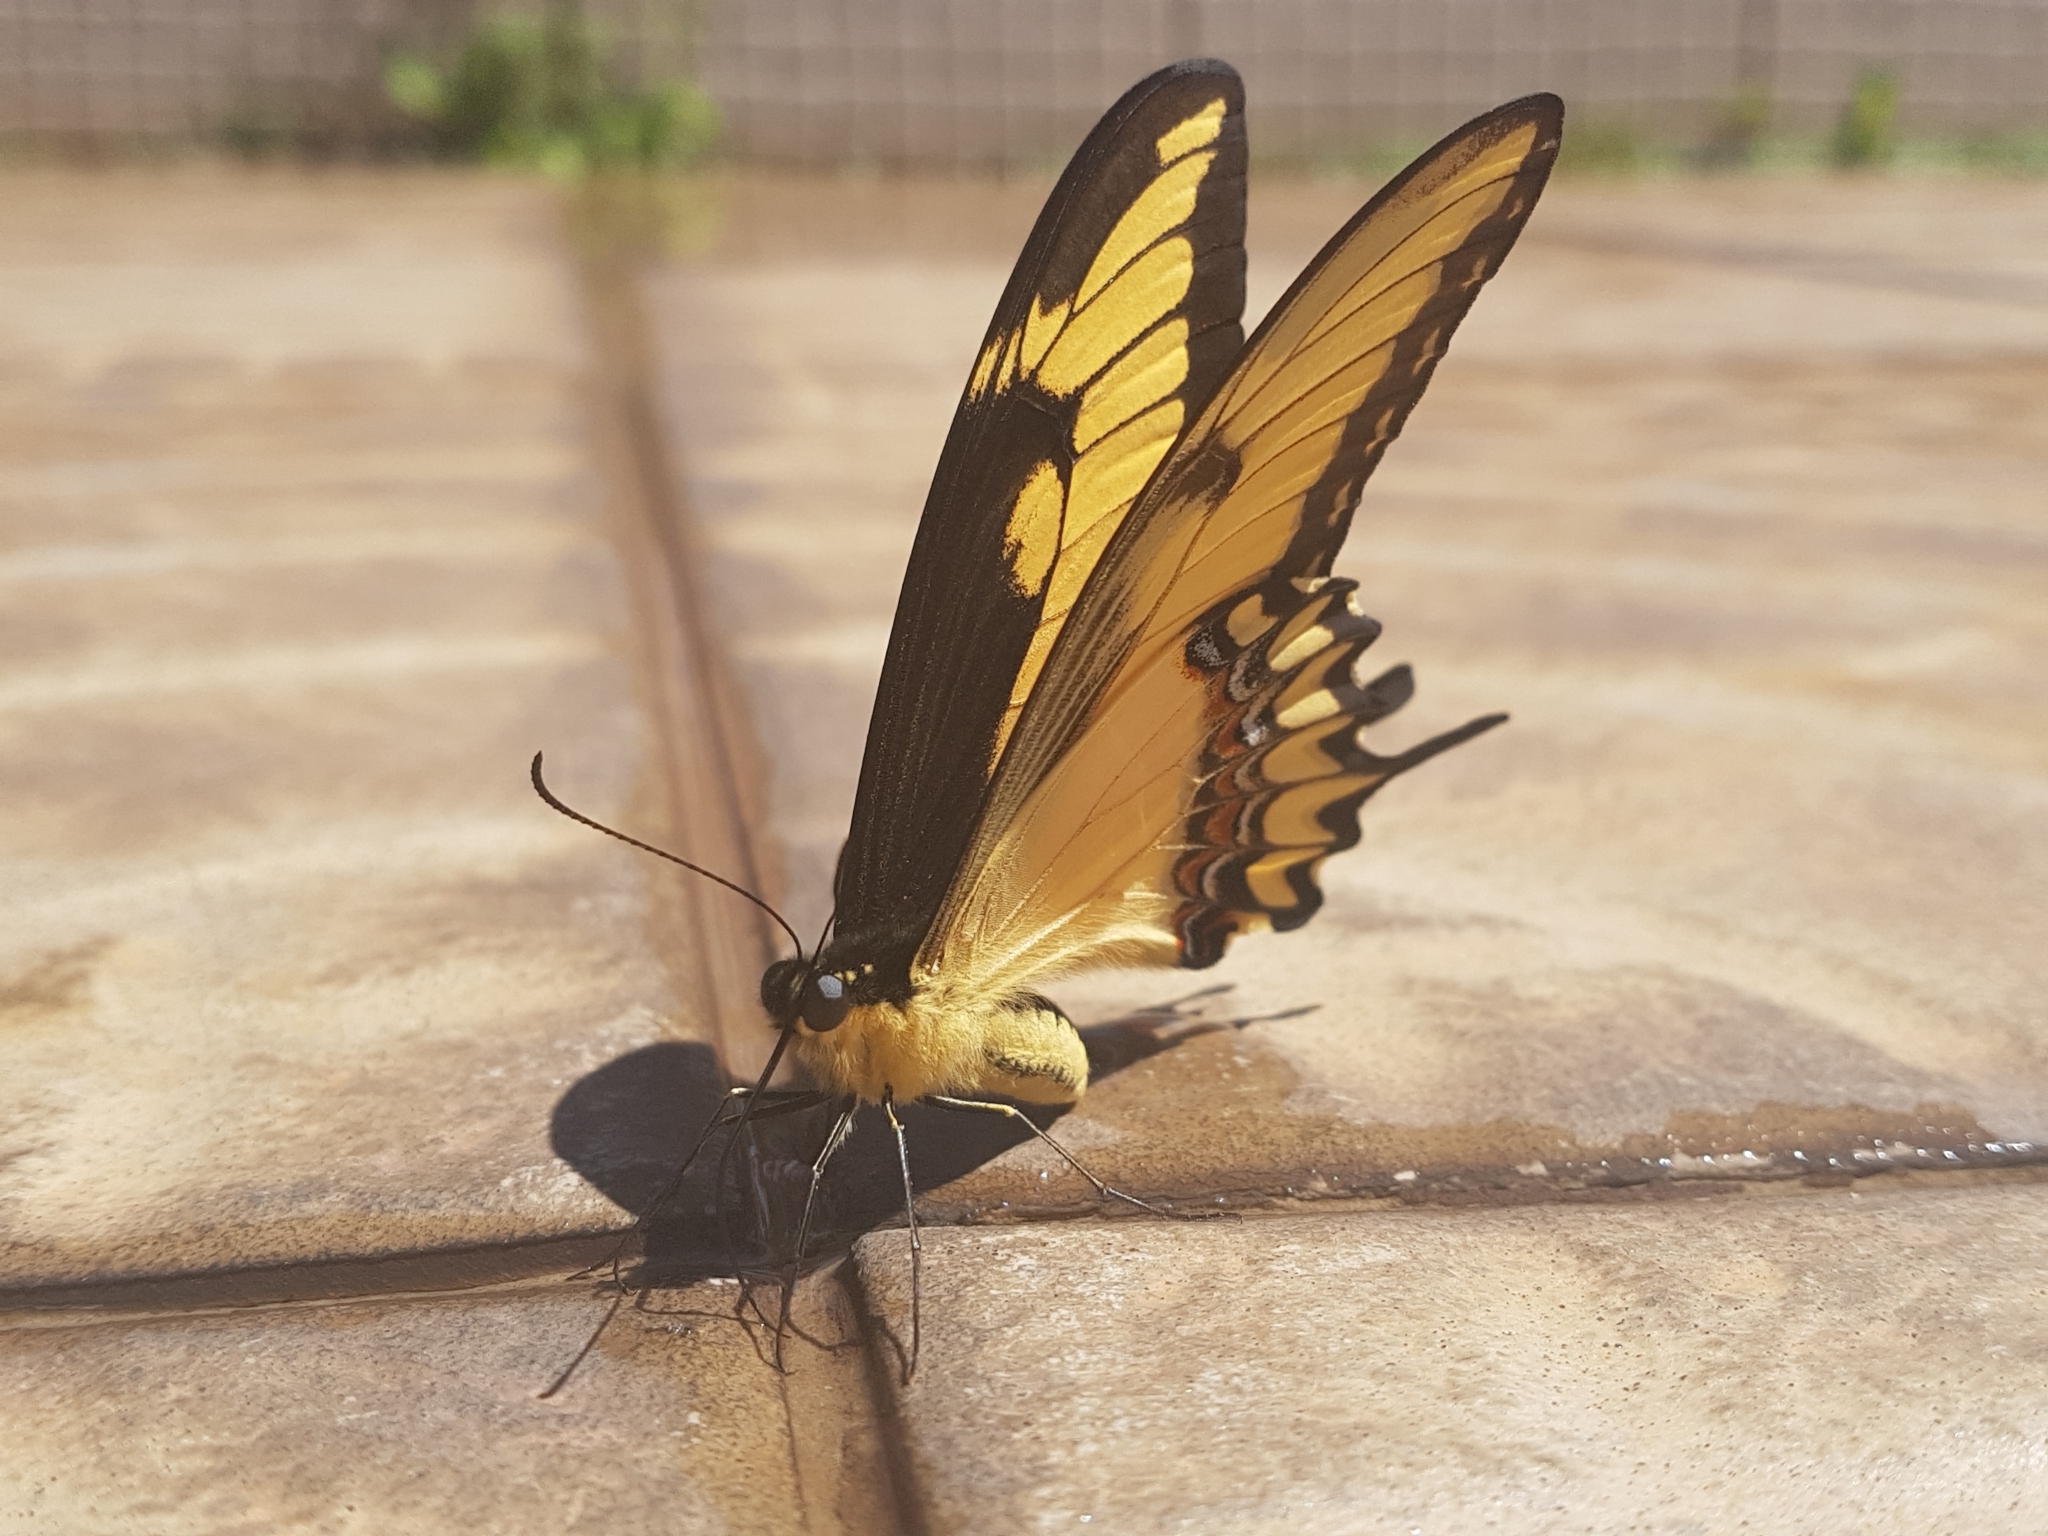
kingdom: Animalia
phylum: Arthropoda
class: Insecta
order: Lepidoptera
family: Papilionidae
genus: Papilio
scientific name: Papilio astyalus
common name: Astyalus swallowtail
